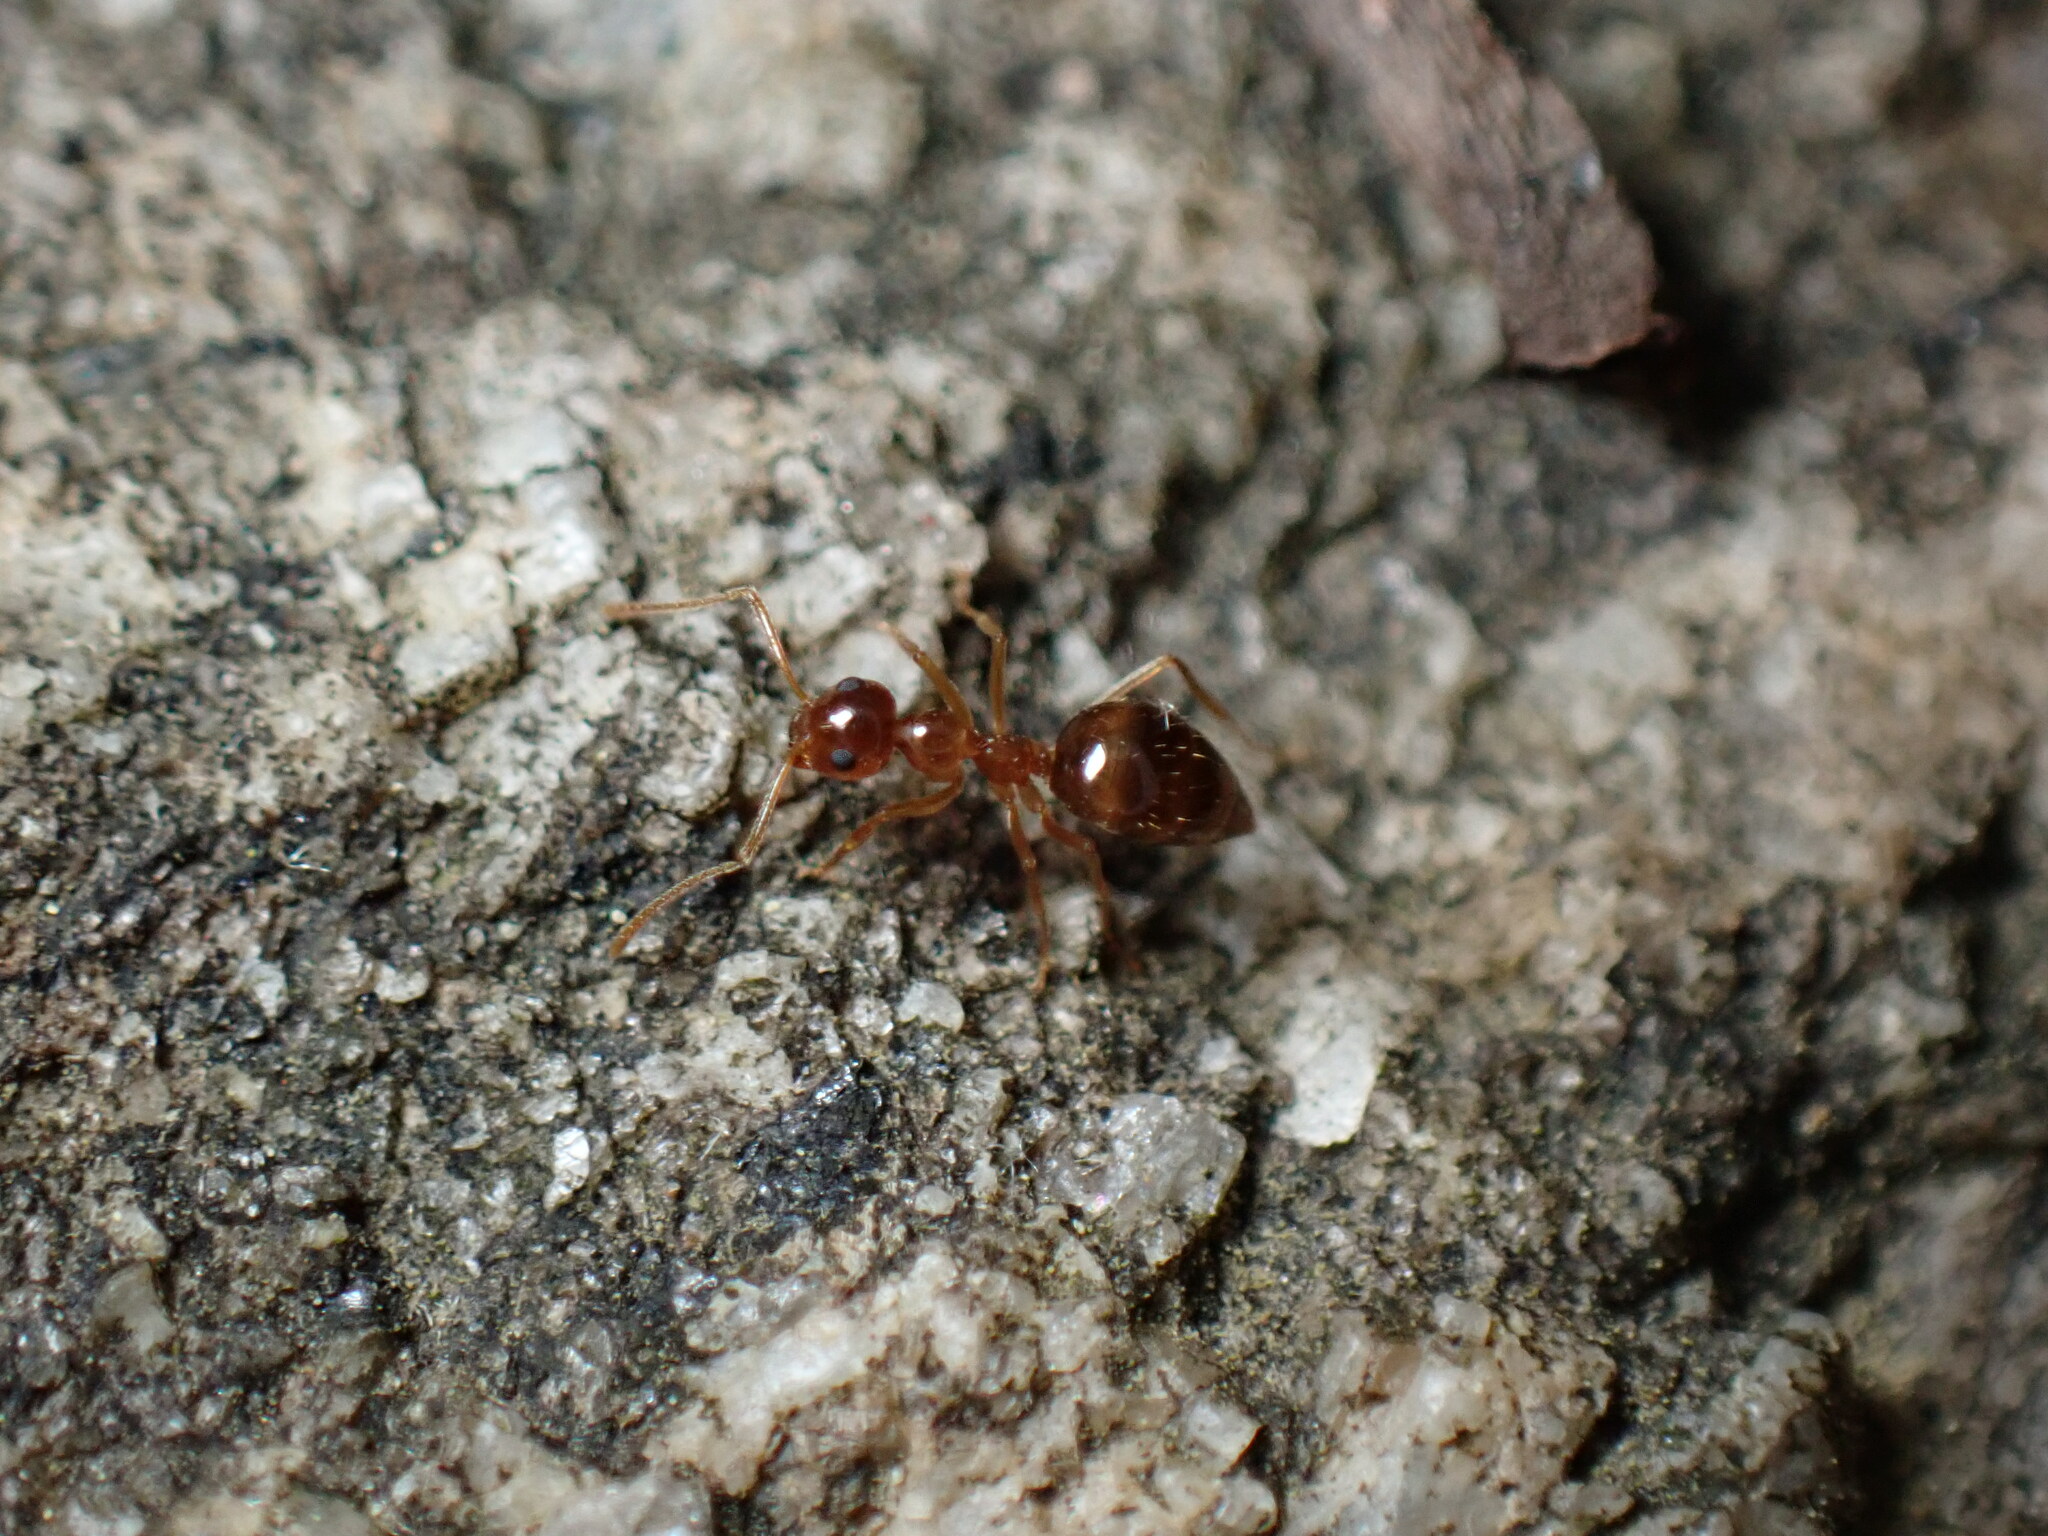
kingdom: Animalia
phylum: Arthropoda
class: Insecta
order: Hymenoptera
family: Formicidae
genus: Prenolepis
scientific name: Prenolepis imparis
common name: Small honey ant
